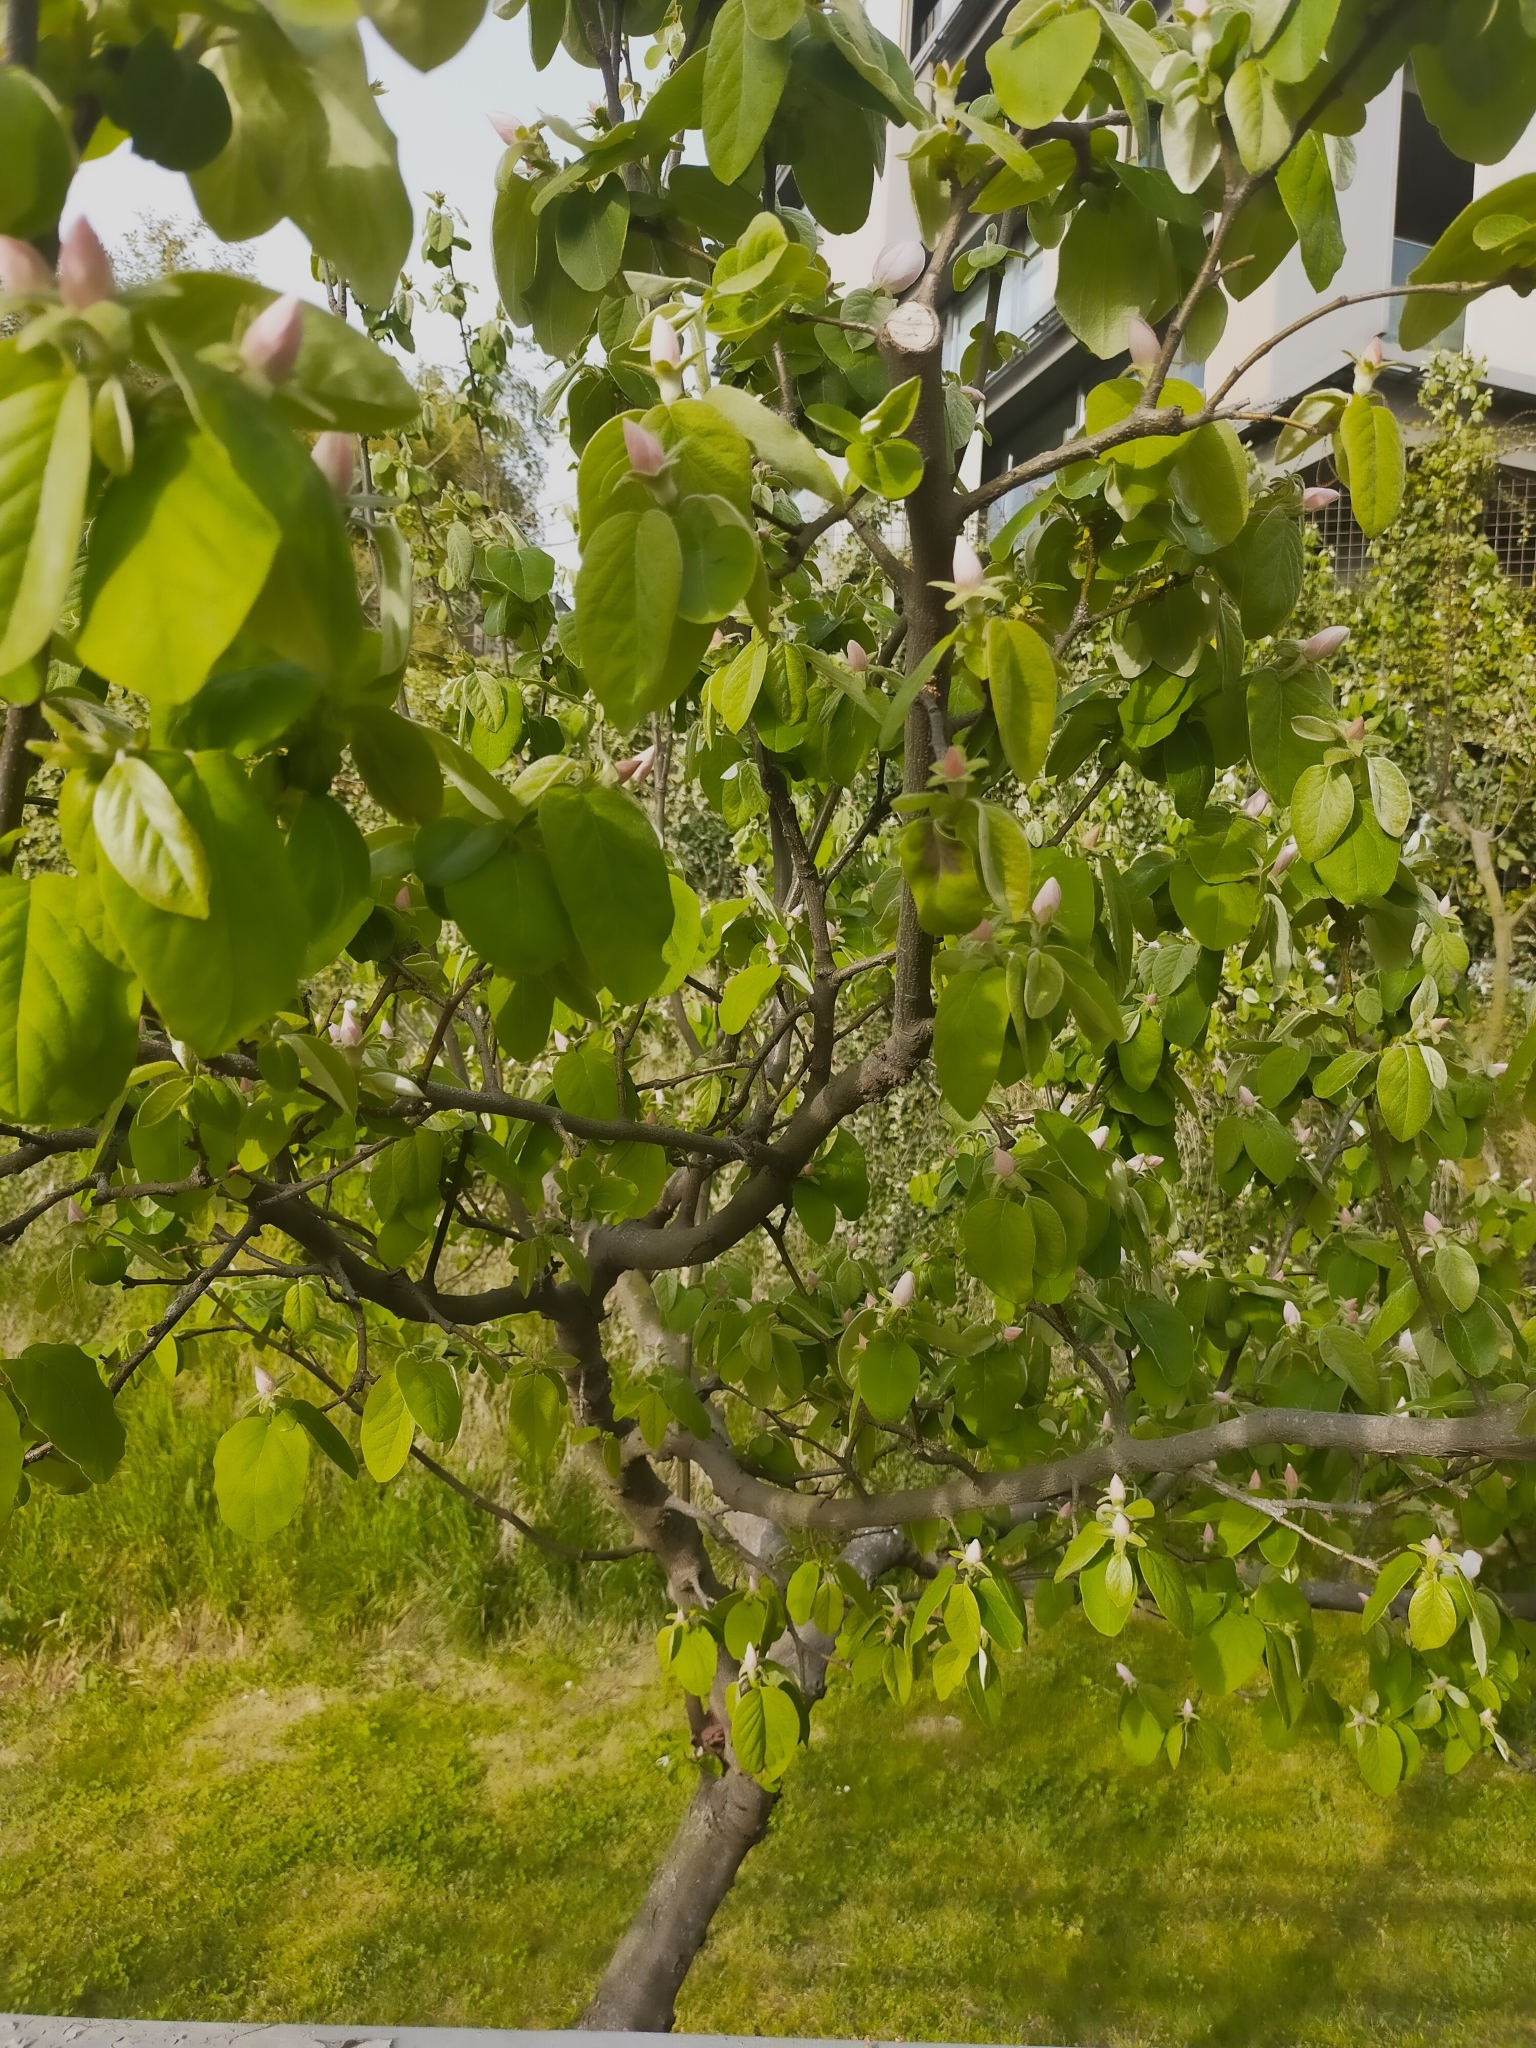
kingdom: Plantae
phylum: Tracheophyta
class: Magnoliopsida
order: Rosales
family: Rosaceae
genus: Cydonia
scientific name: Cydonia oblonga
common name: Quince
